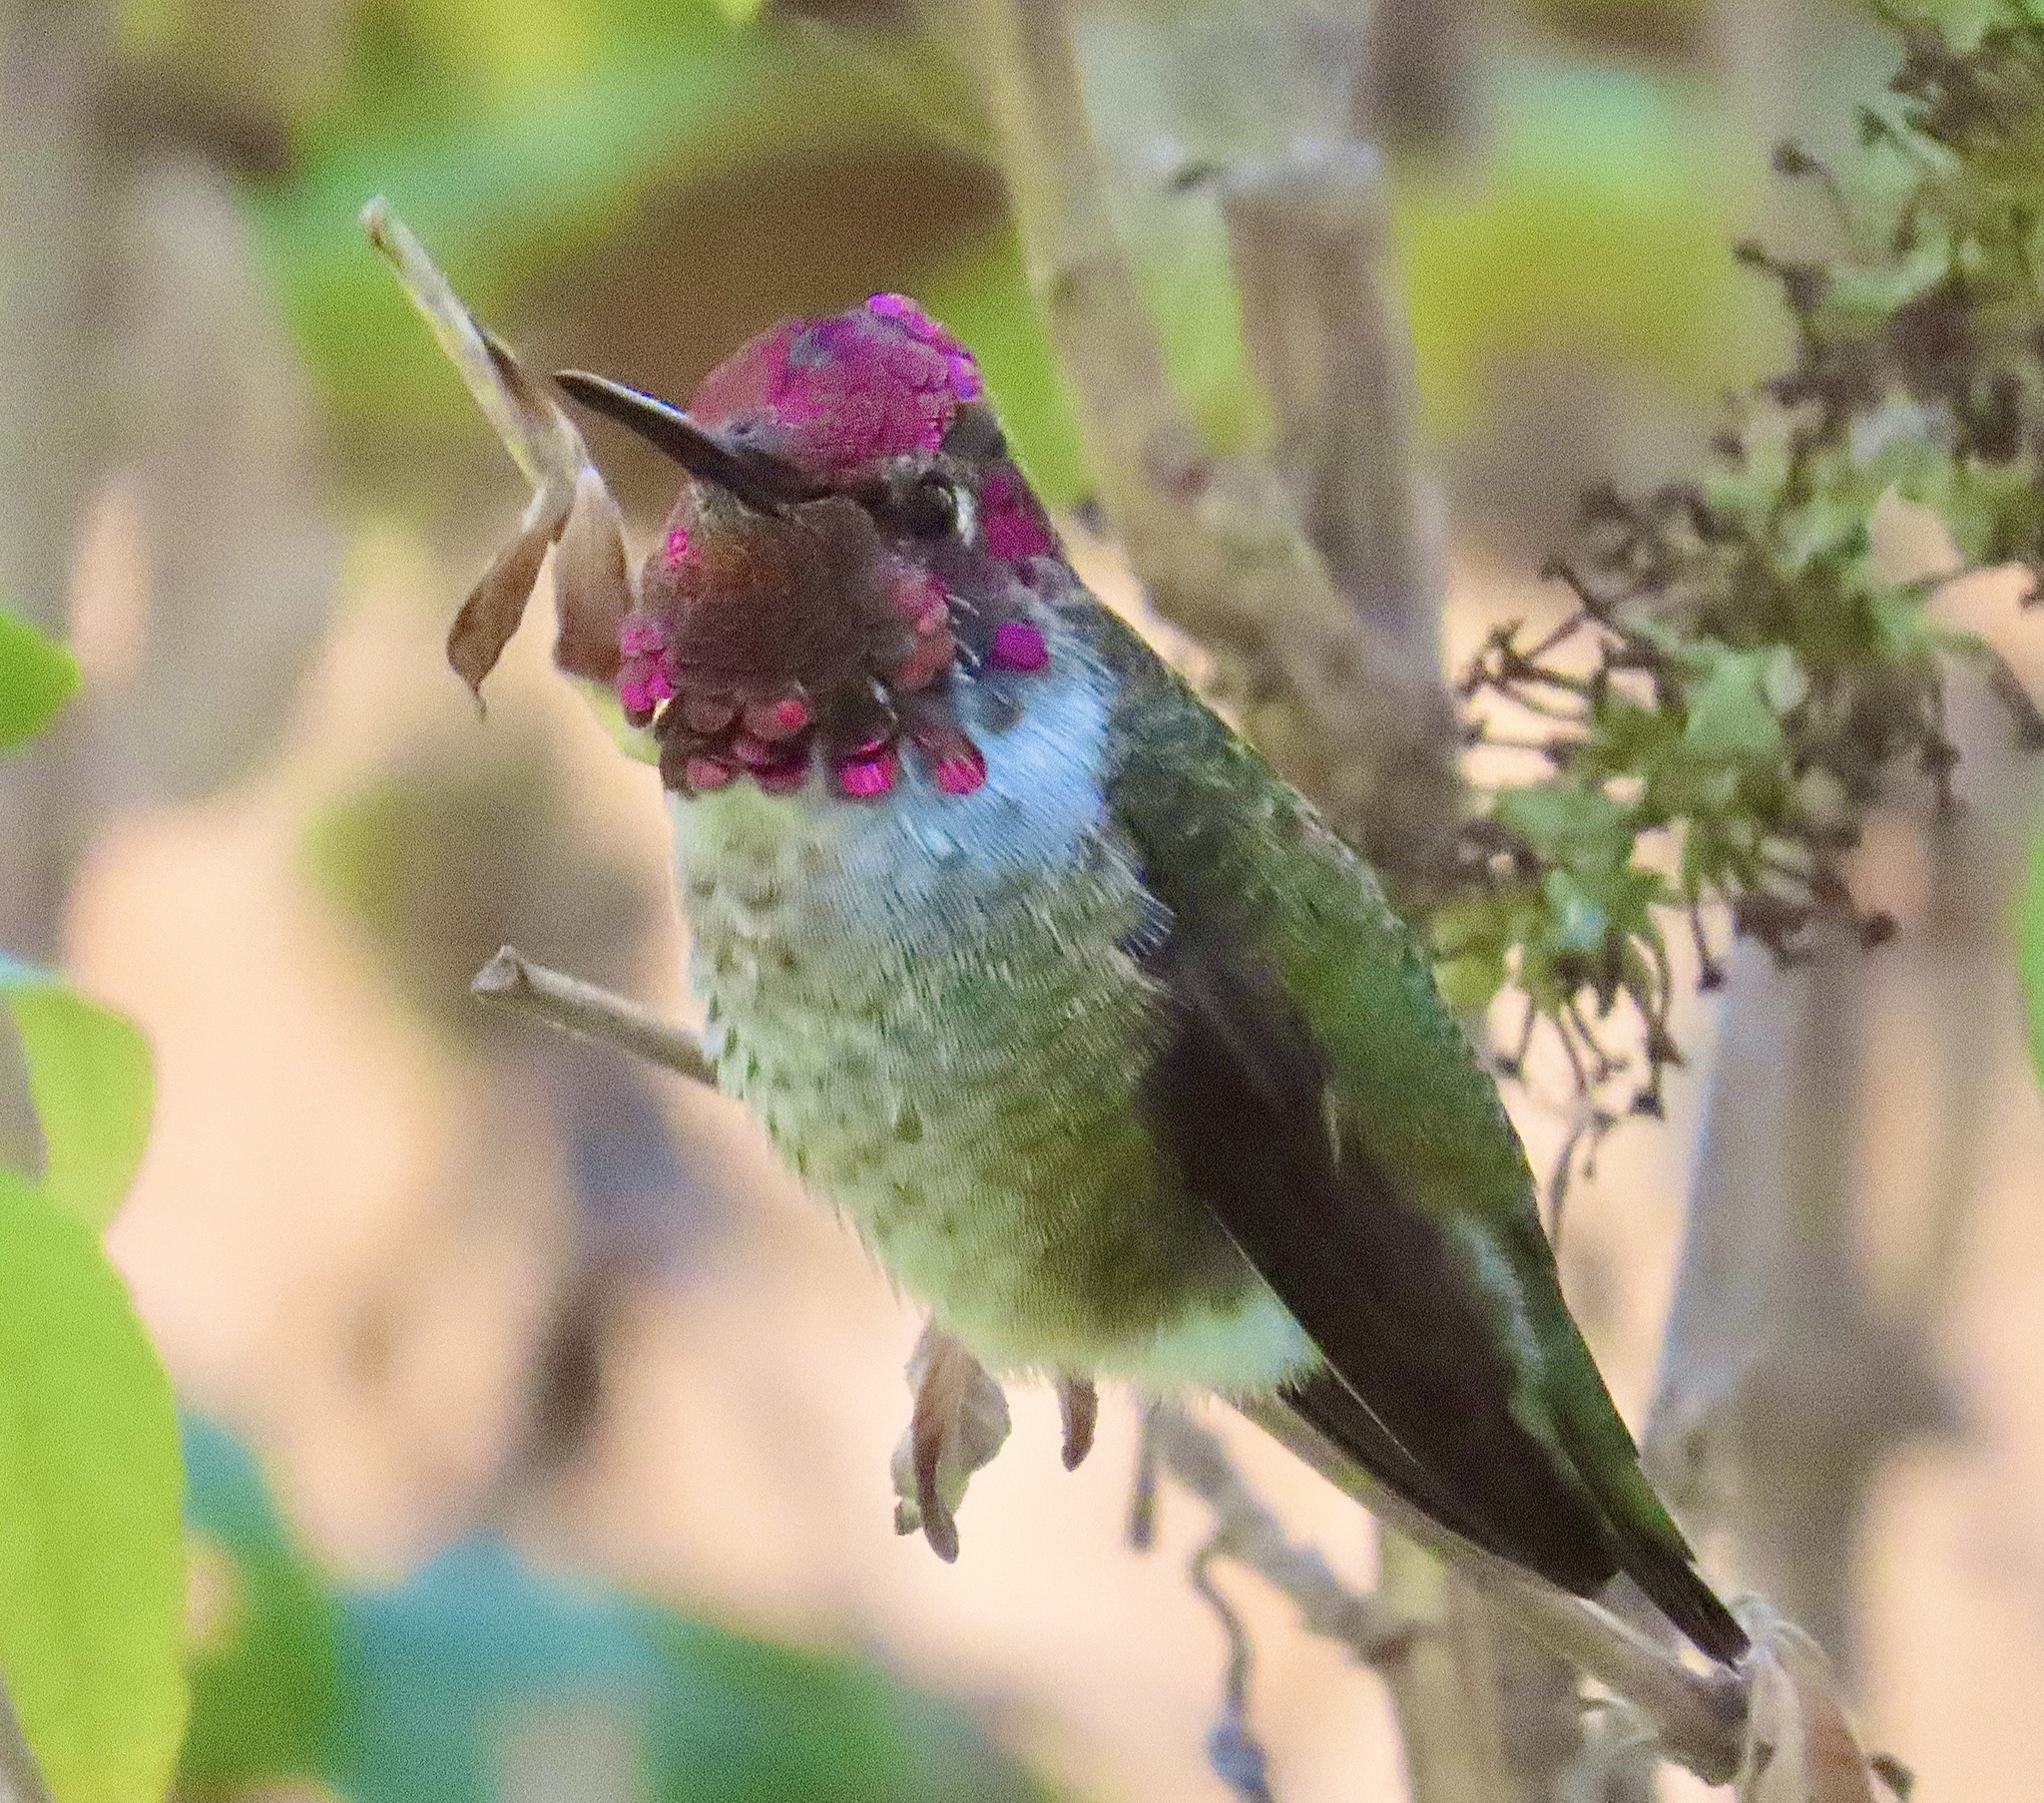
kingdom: Animalia
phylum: Chordata
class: Aves
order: Apodiformes
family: Trochilidae
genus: Calypte
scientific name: Calypte anna
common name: Anna's hummingbird
